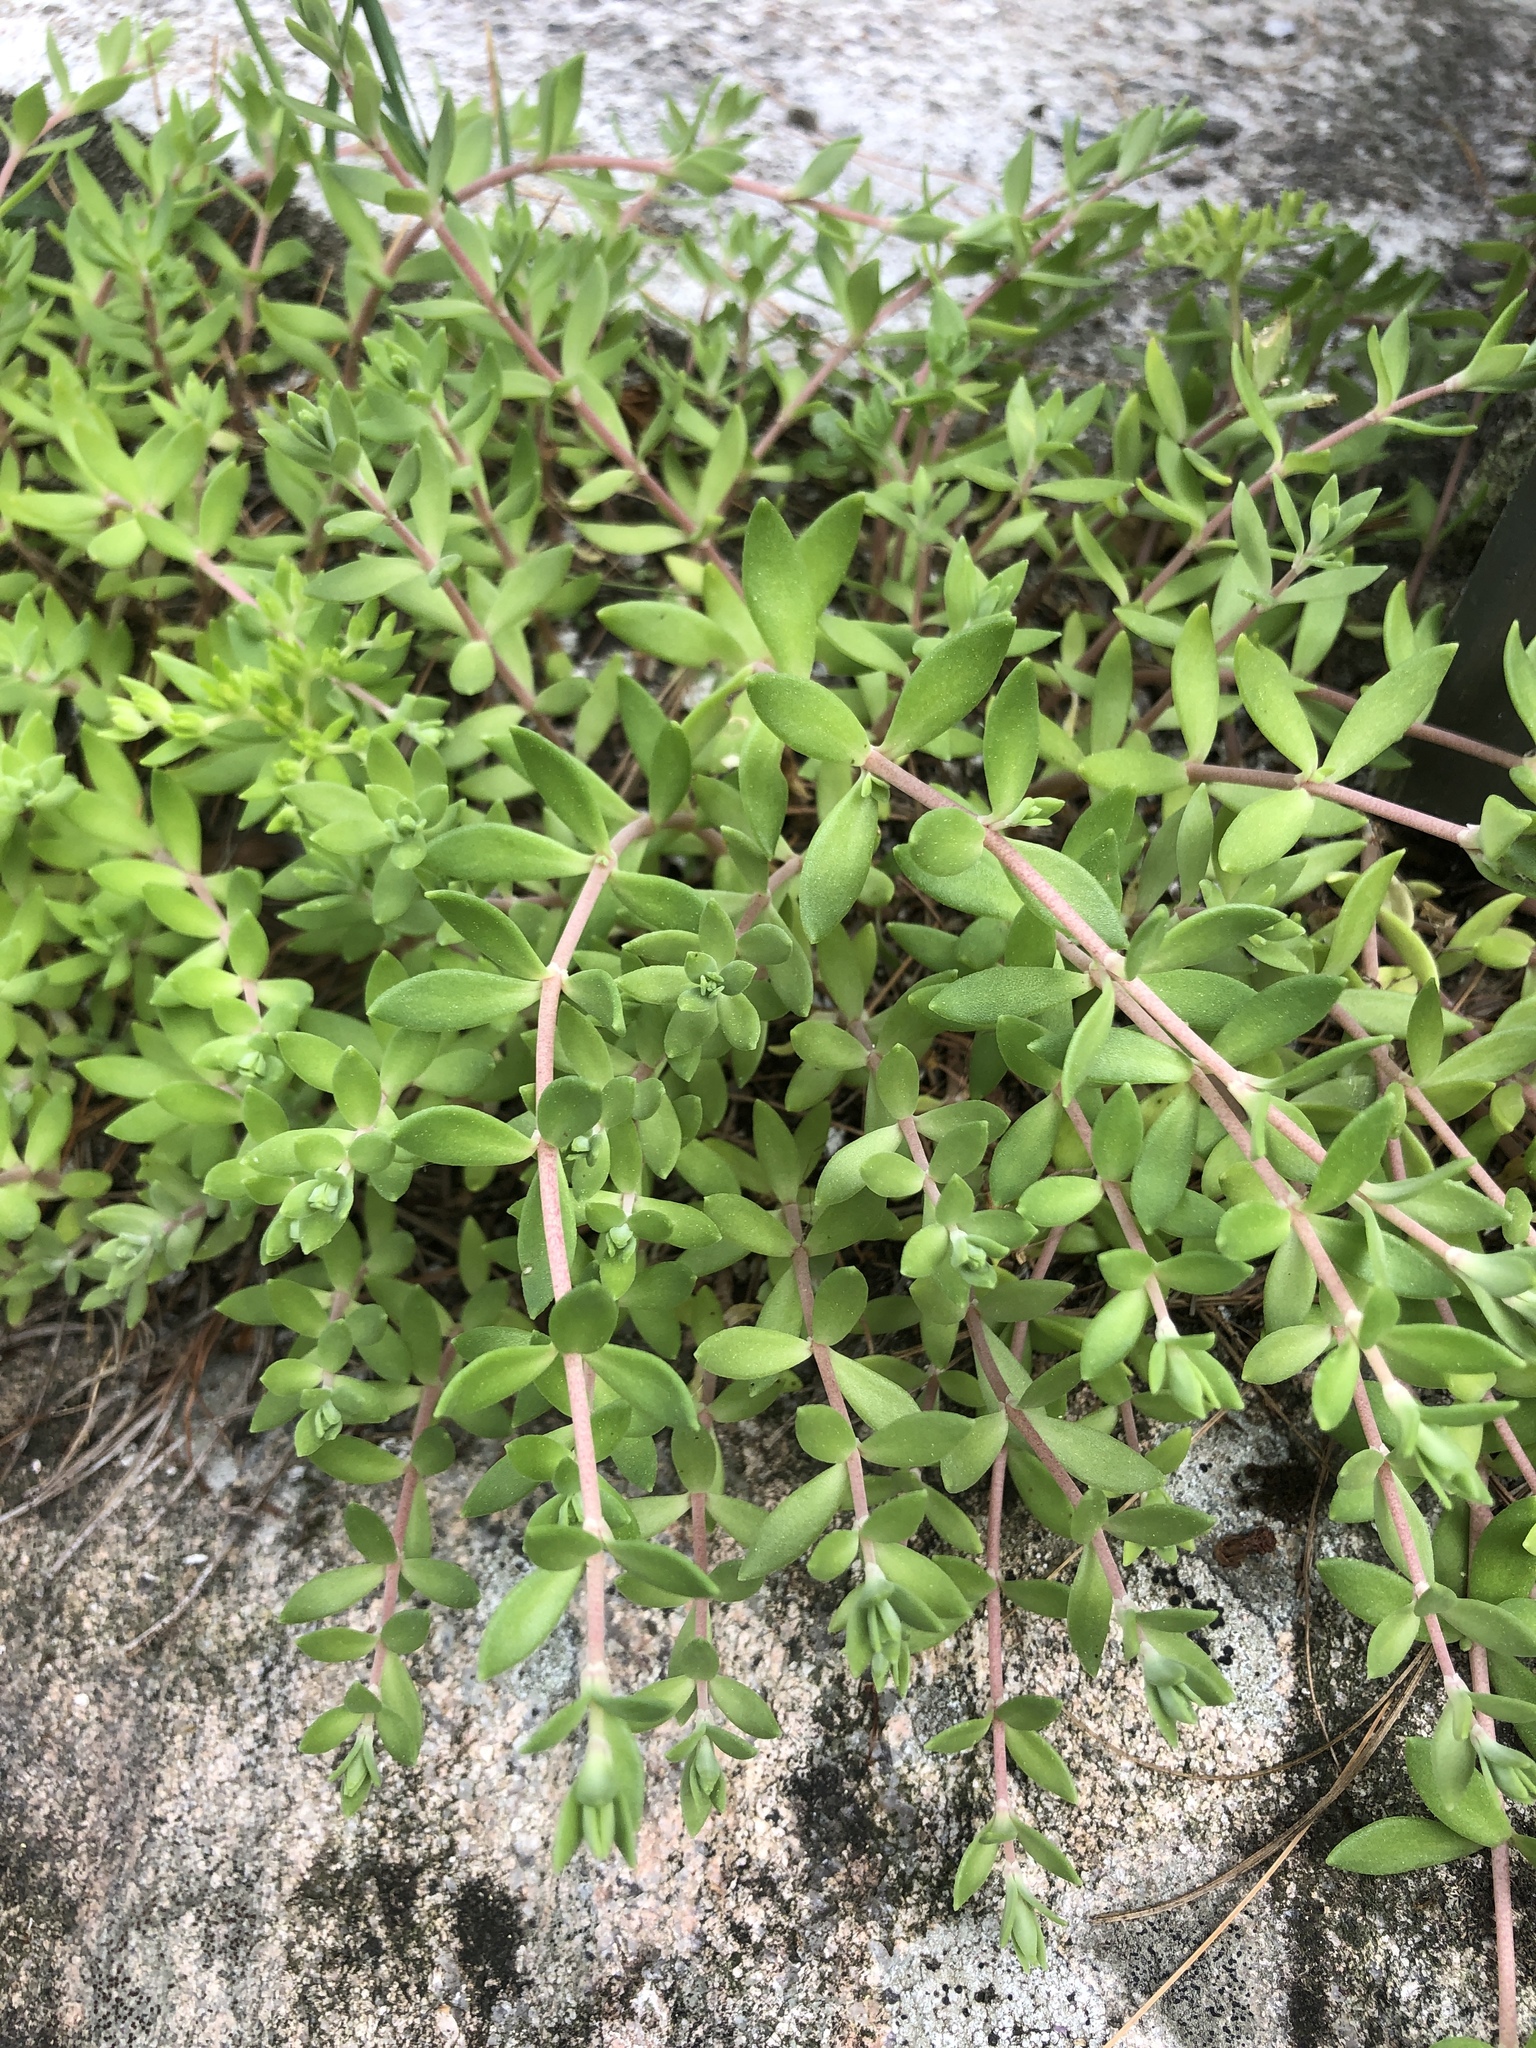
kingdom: Plantae
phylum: Tracheophyta
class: Magnoliopsida
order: Saxifragales
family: Crassulaceae
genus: Sedum
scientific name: Sedum sarmentosum
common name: Stringy stonecrop
